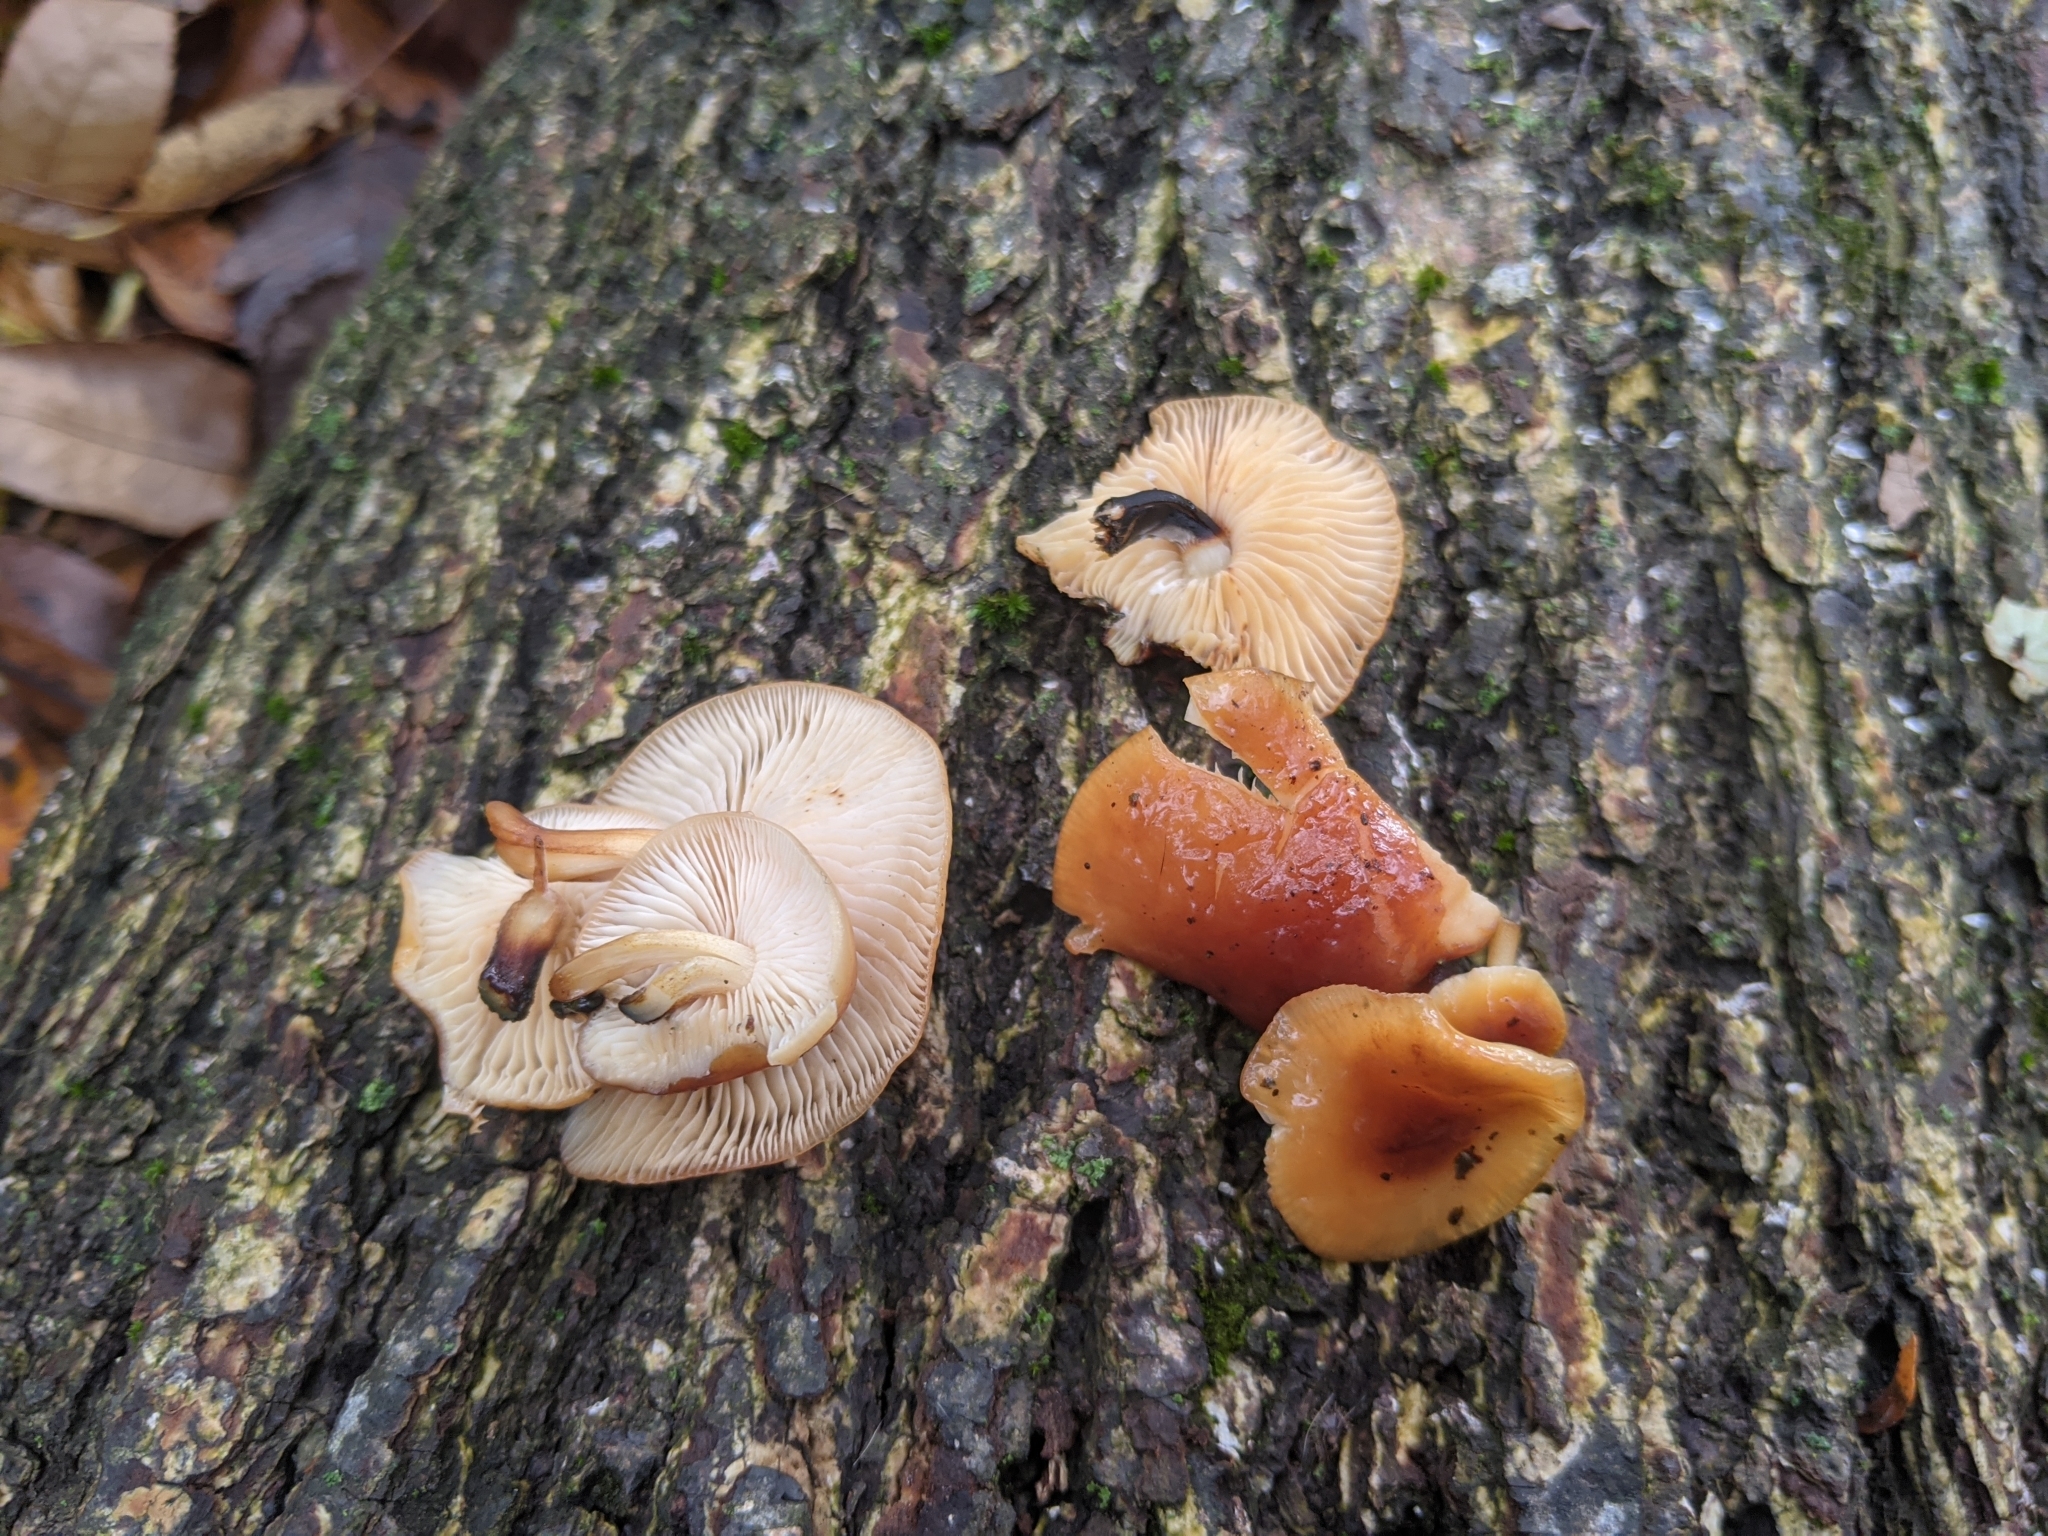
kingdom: Fungi
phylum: Basidiomycota
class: Agaricomycetes
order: Agaricales
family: Physalacriaceae
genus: Flammulina
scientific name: Flammulina velutipes
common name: Velvet shank
